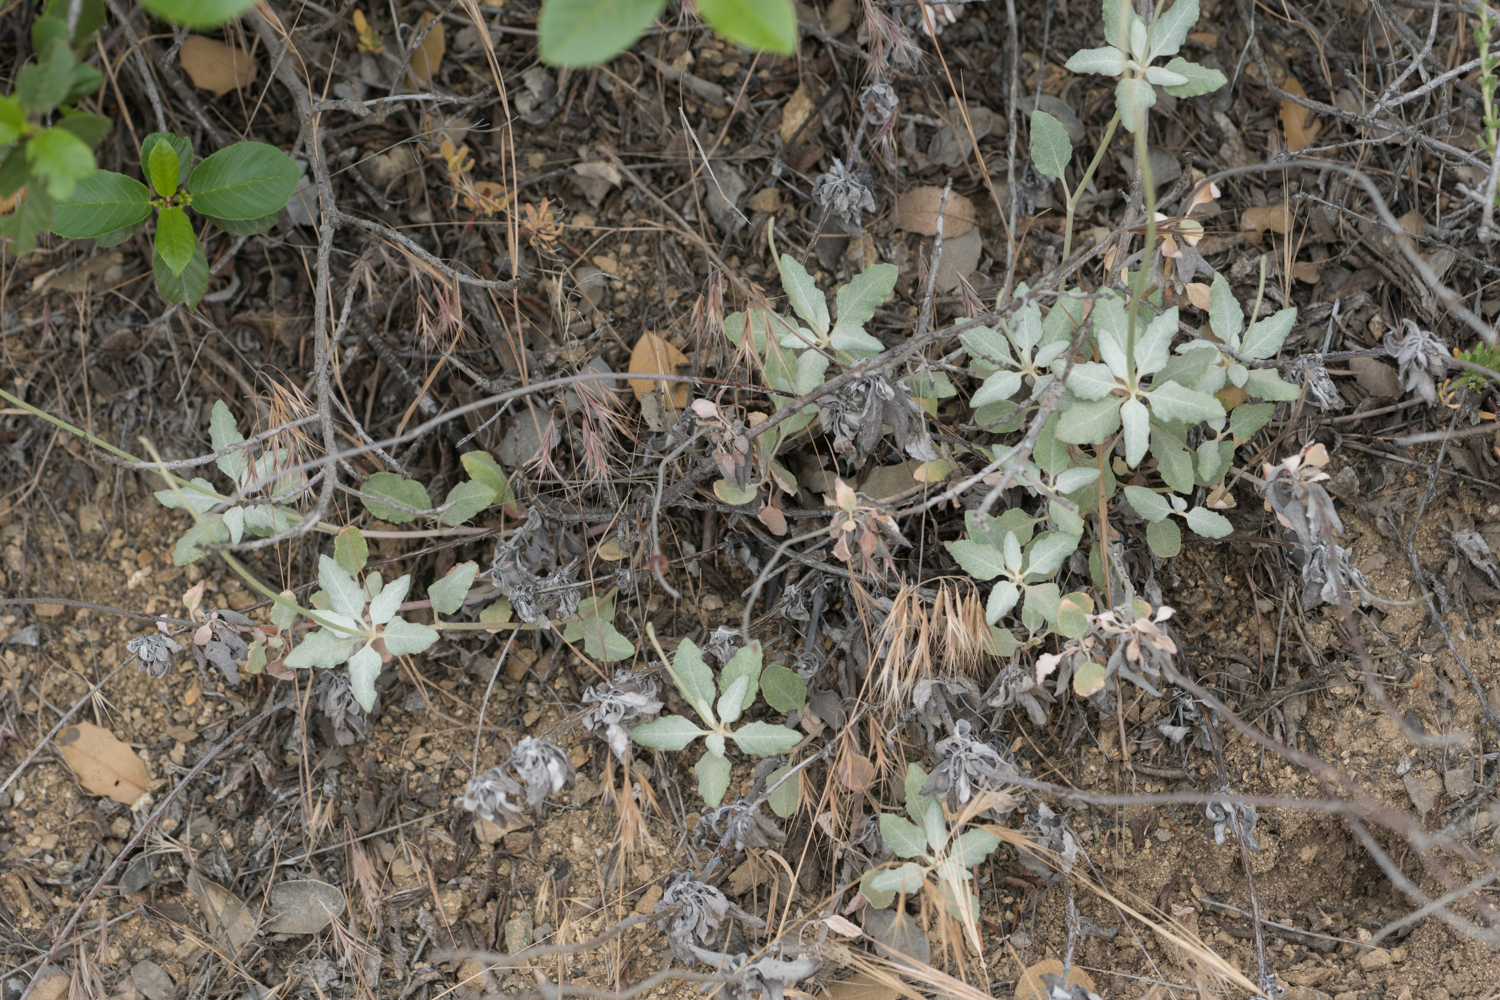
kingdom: Plantae
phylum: Tracheophyta
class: Magnoliopsida
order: Caryophyllales
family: Polygonaceae
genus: Eriogonum
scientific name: Eriogonum elongatum
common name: Long-stem wild buckwheat
